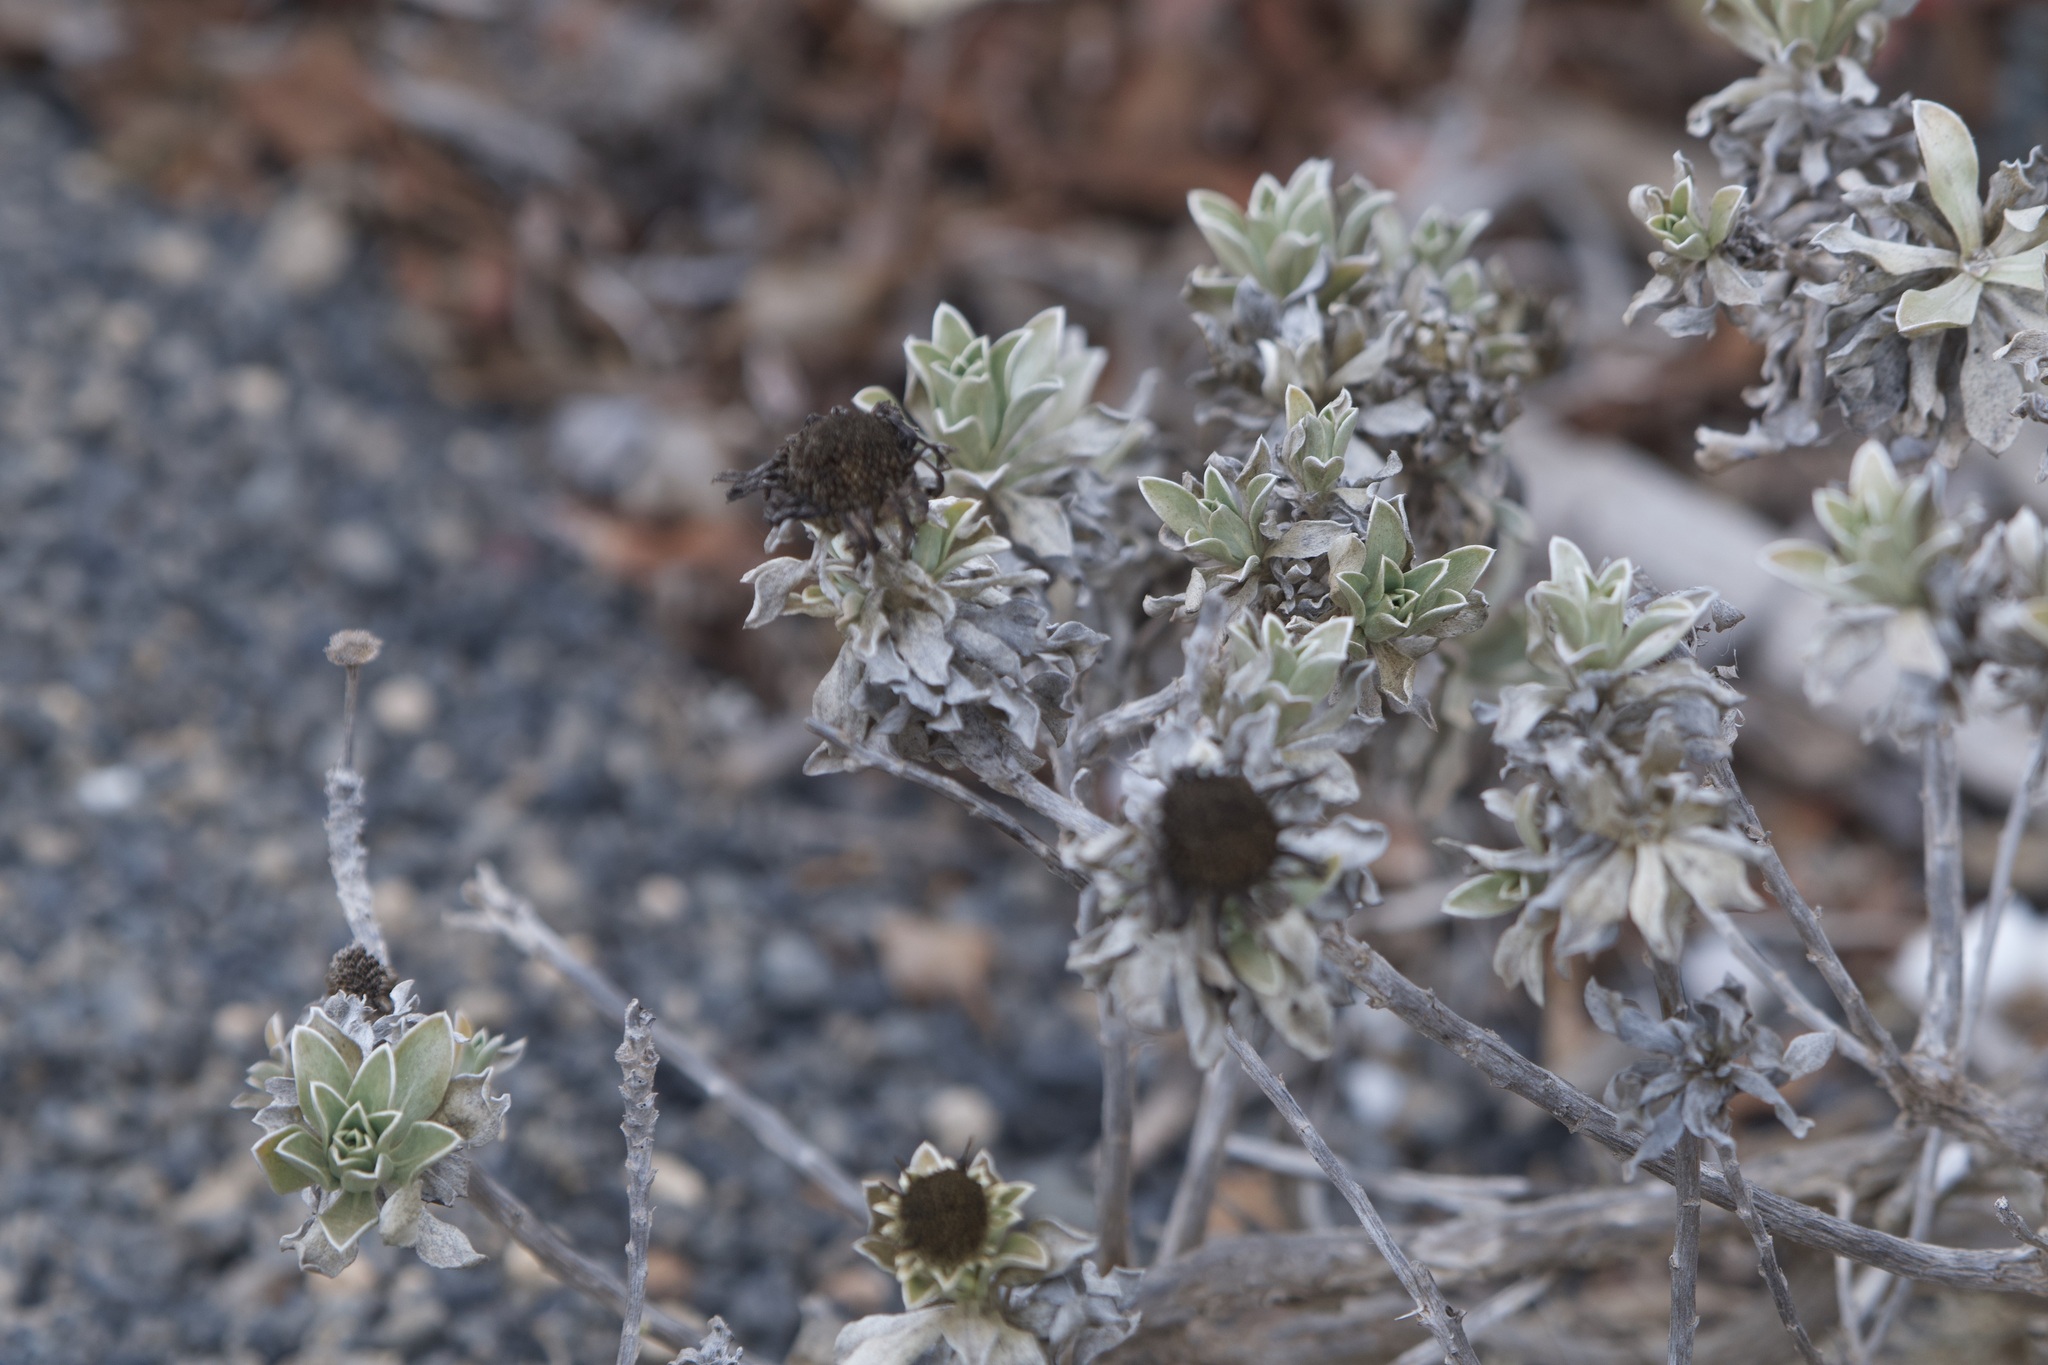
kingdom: Plantae
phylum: Tracheophyta
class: Magnoliopsida
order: Asterales
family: Asteraceae
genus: Asteriscus
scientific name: Asteriscus intermedius
